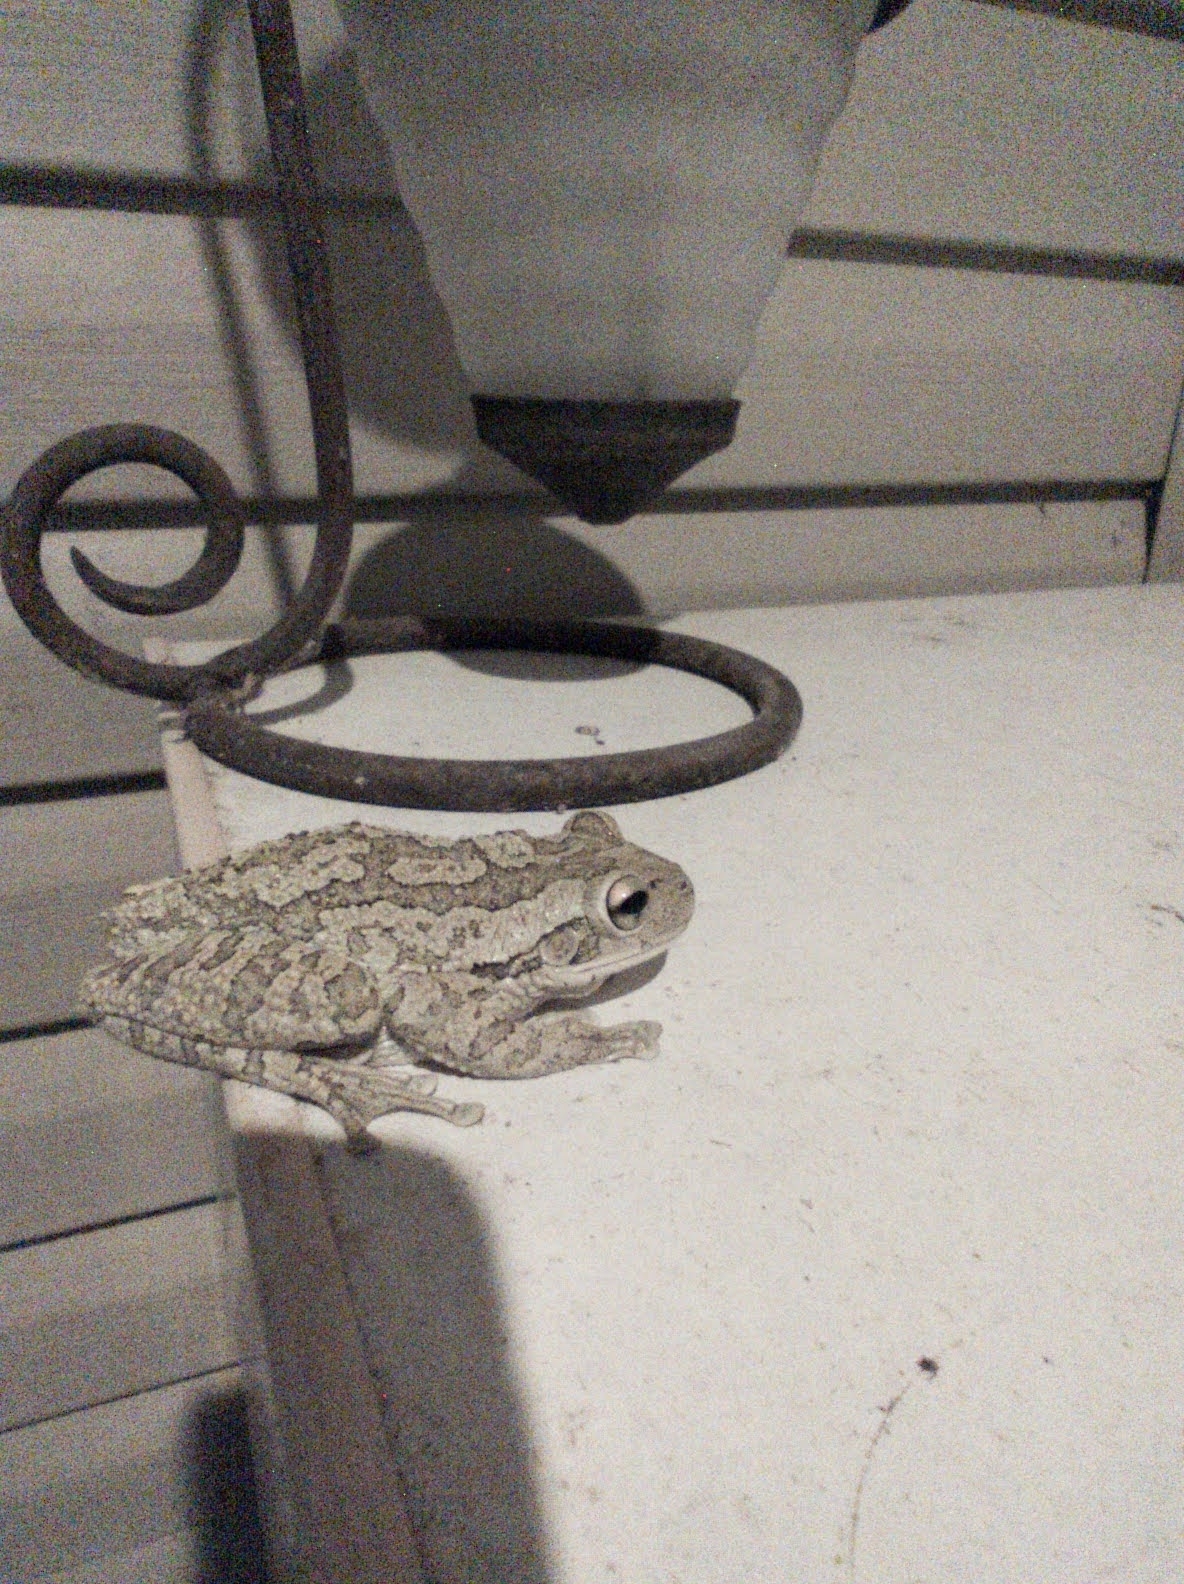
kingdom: Animalia
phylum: Chordata
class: Amphibia
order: Anura
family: Hylidae
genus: Osteopilus
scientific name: Osteopilus septentrionalis
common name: Cuban treefrog
